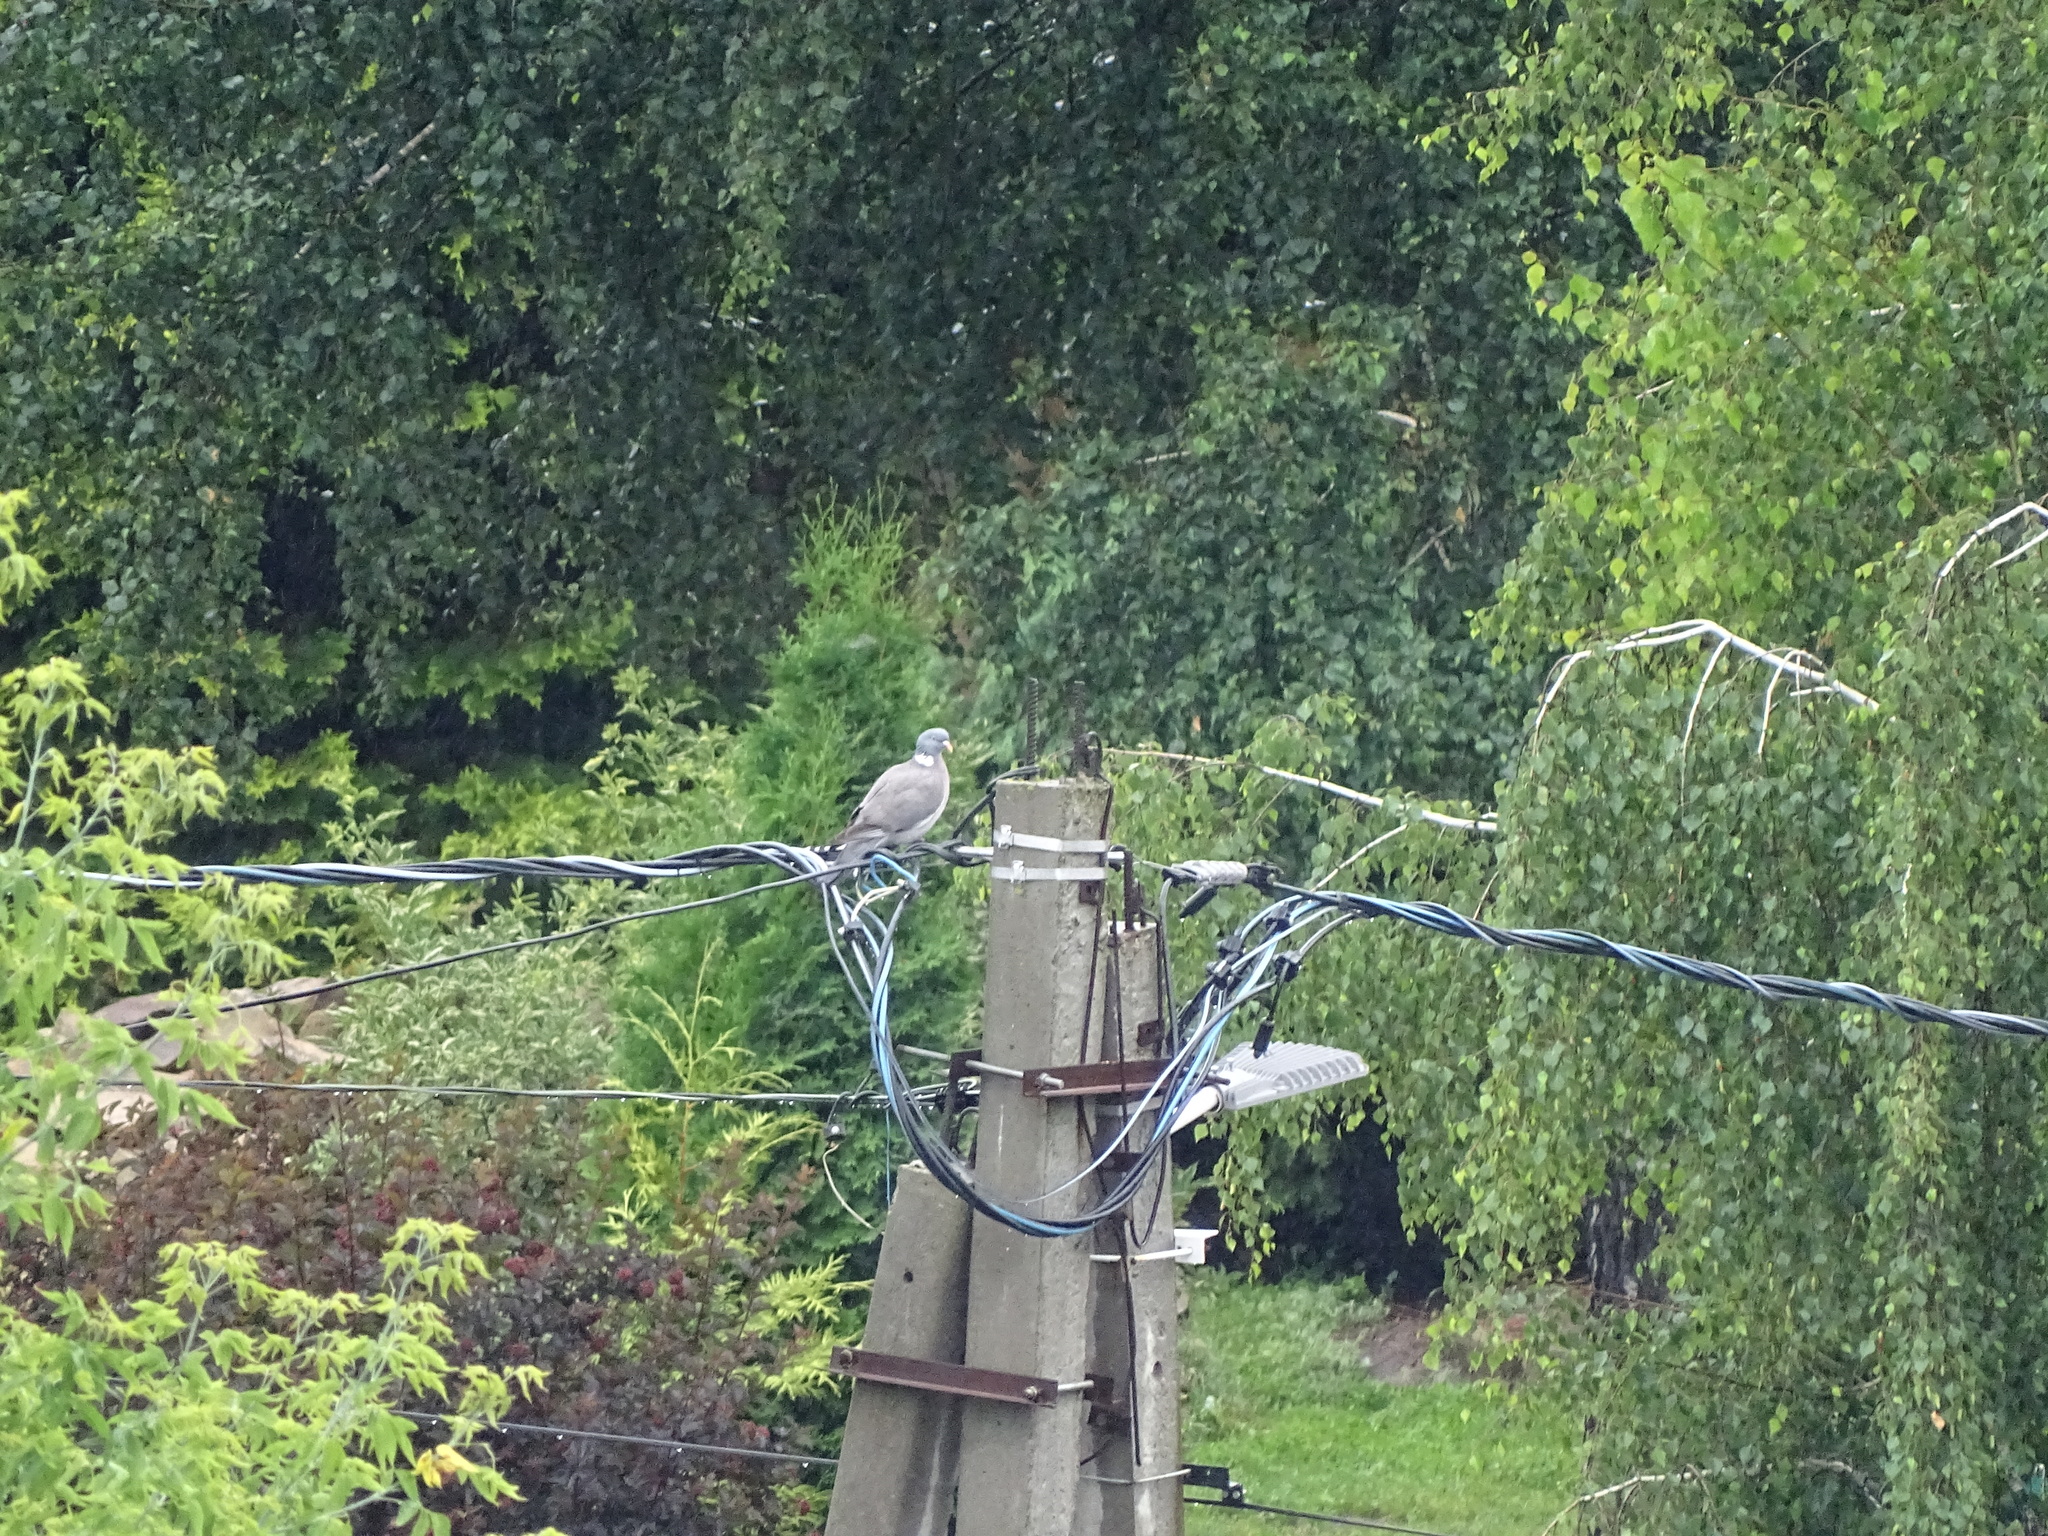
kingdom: Animalia
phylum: Chordata
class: Aves
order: Columbiformes
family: Columbidae
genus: Columba
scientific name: Columba palumbus
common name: Common wood pigeon
